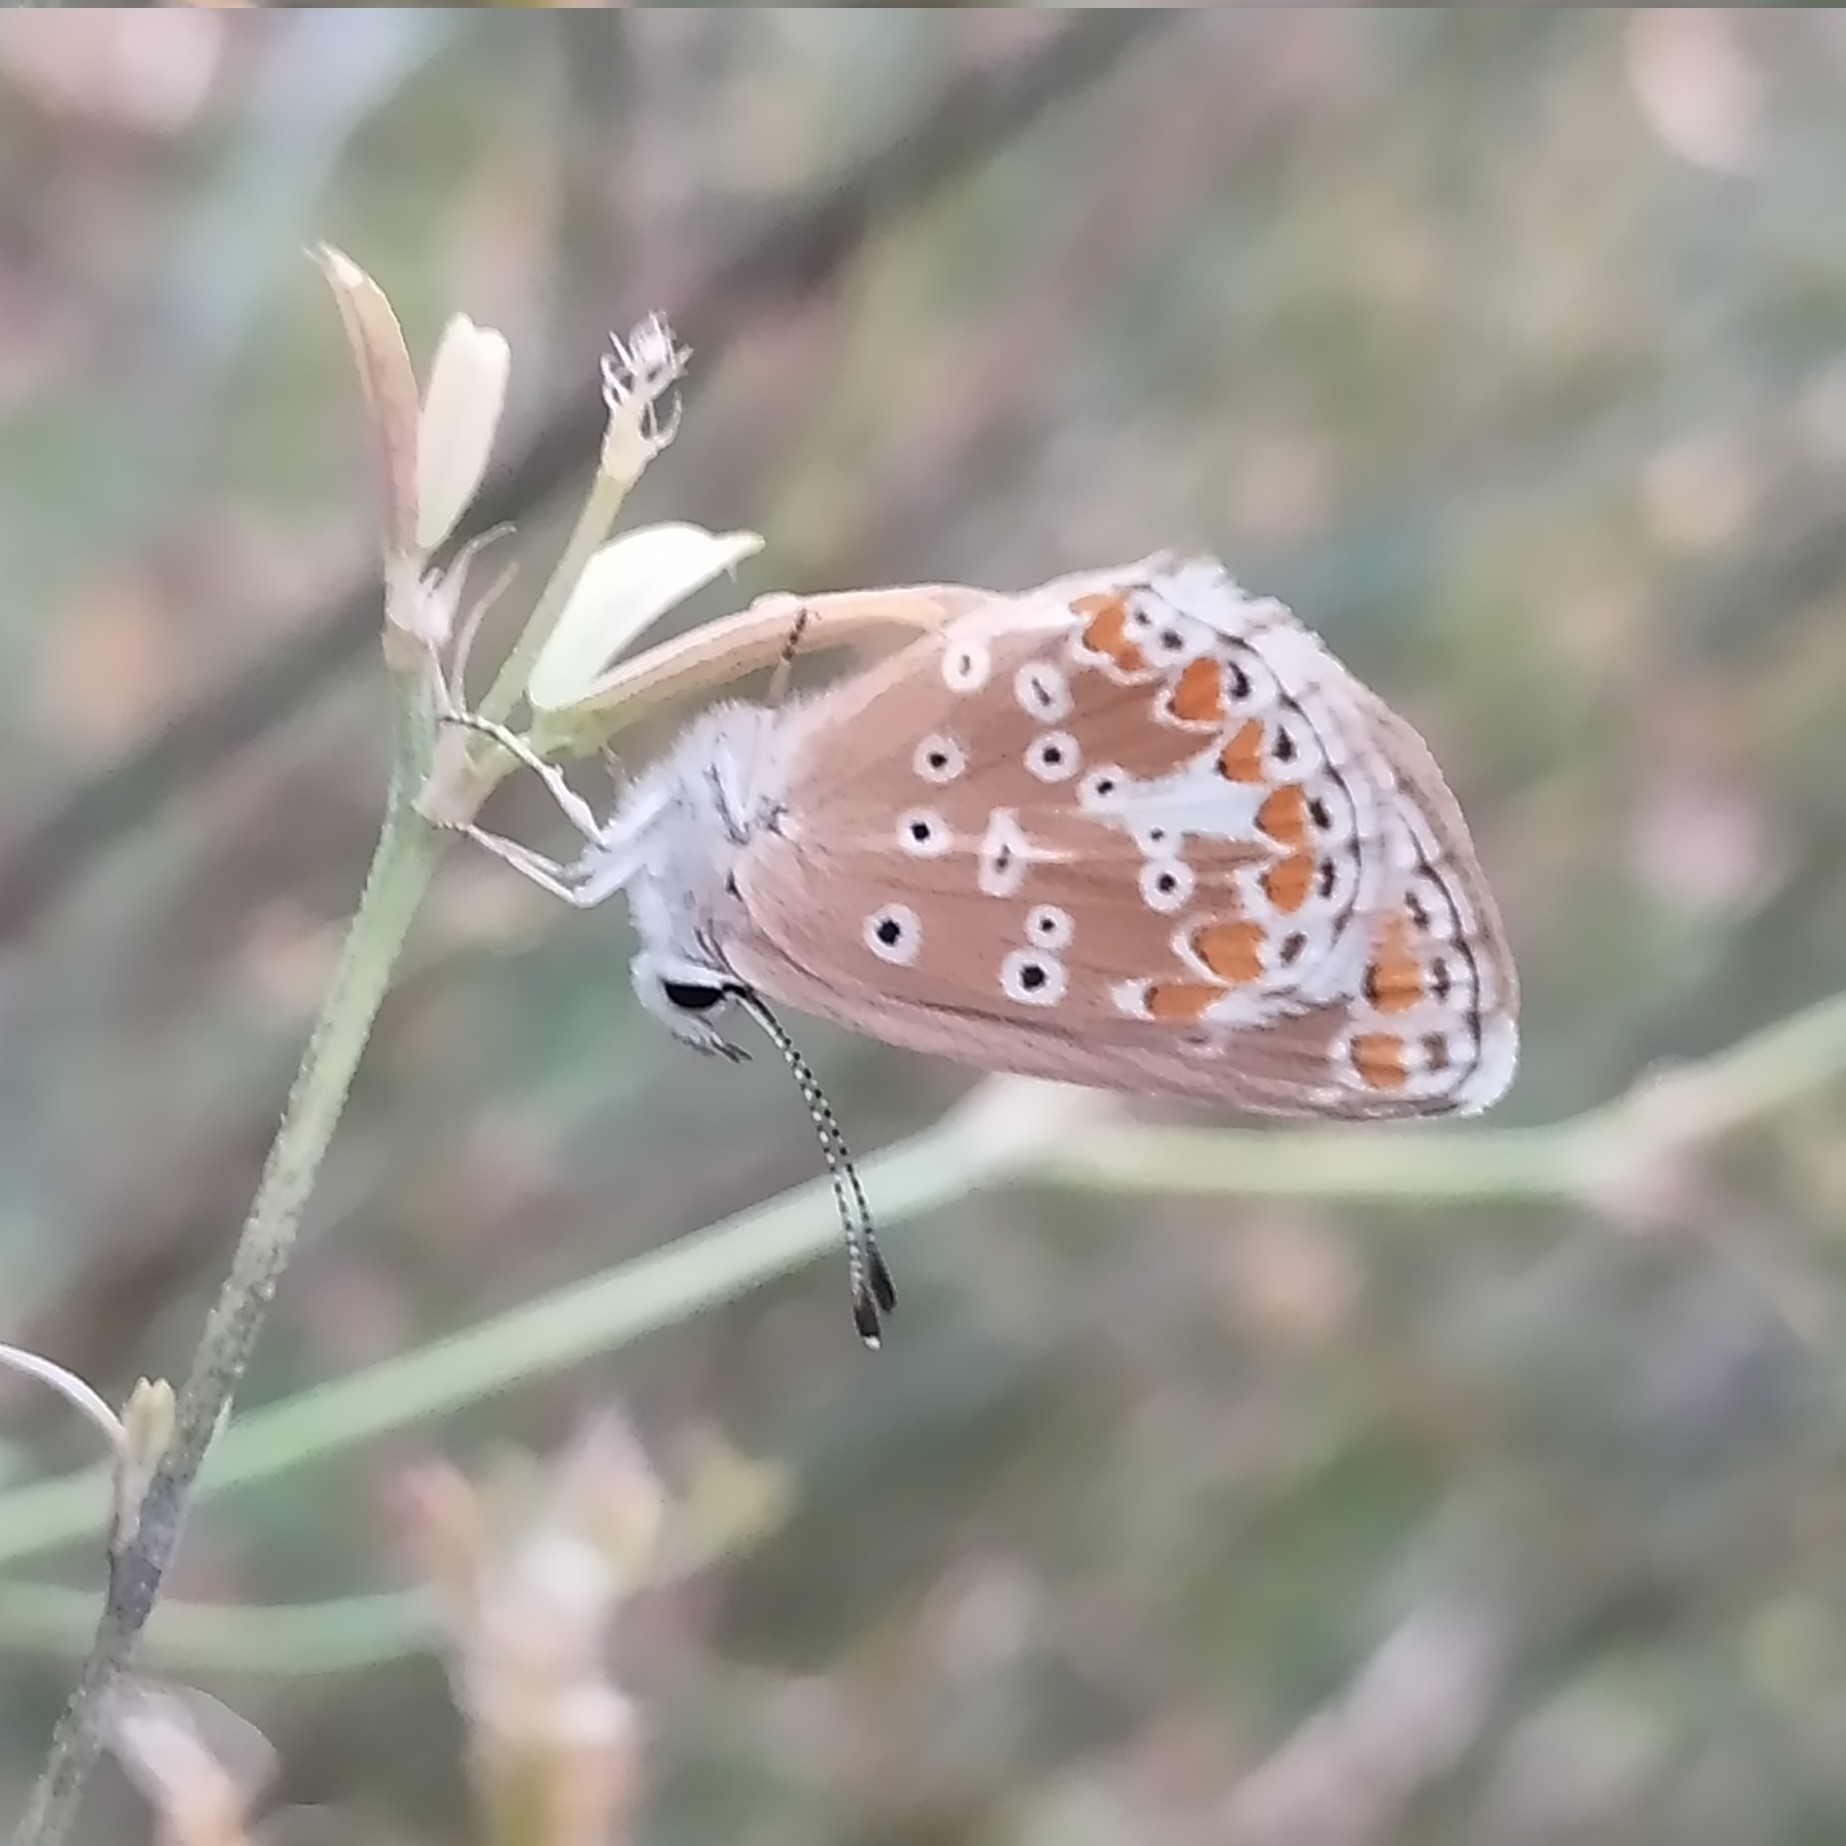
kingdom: Animalia
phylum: Arthropoda
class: Insecta
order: Lepidoptera
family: Lycaenidae
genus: Aricia
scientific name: Aricia agestis
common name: Brown argus
